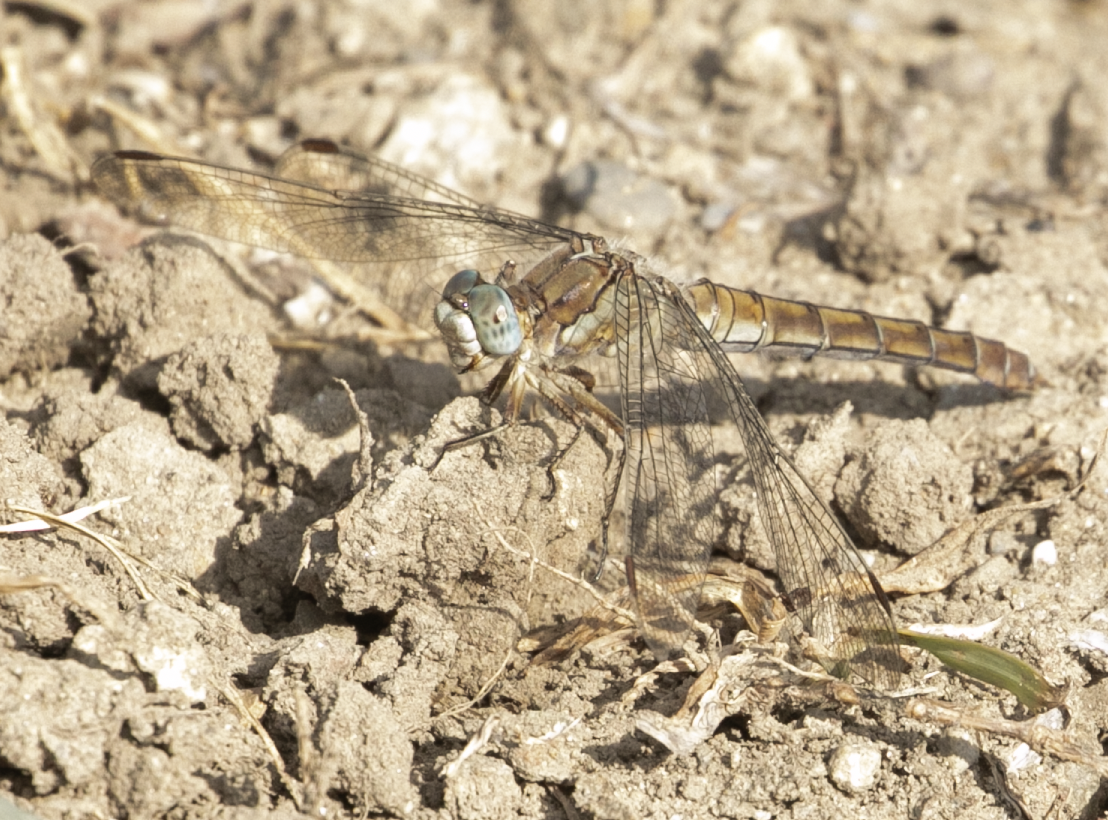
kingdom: Animalia
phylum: Arthropoda
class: Insecta
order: Odonata
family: Libellulidae
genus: Orthetrum
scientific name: Orthetrum brunneum
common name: Southern skimmer
